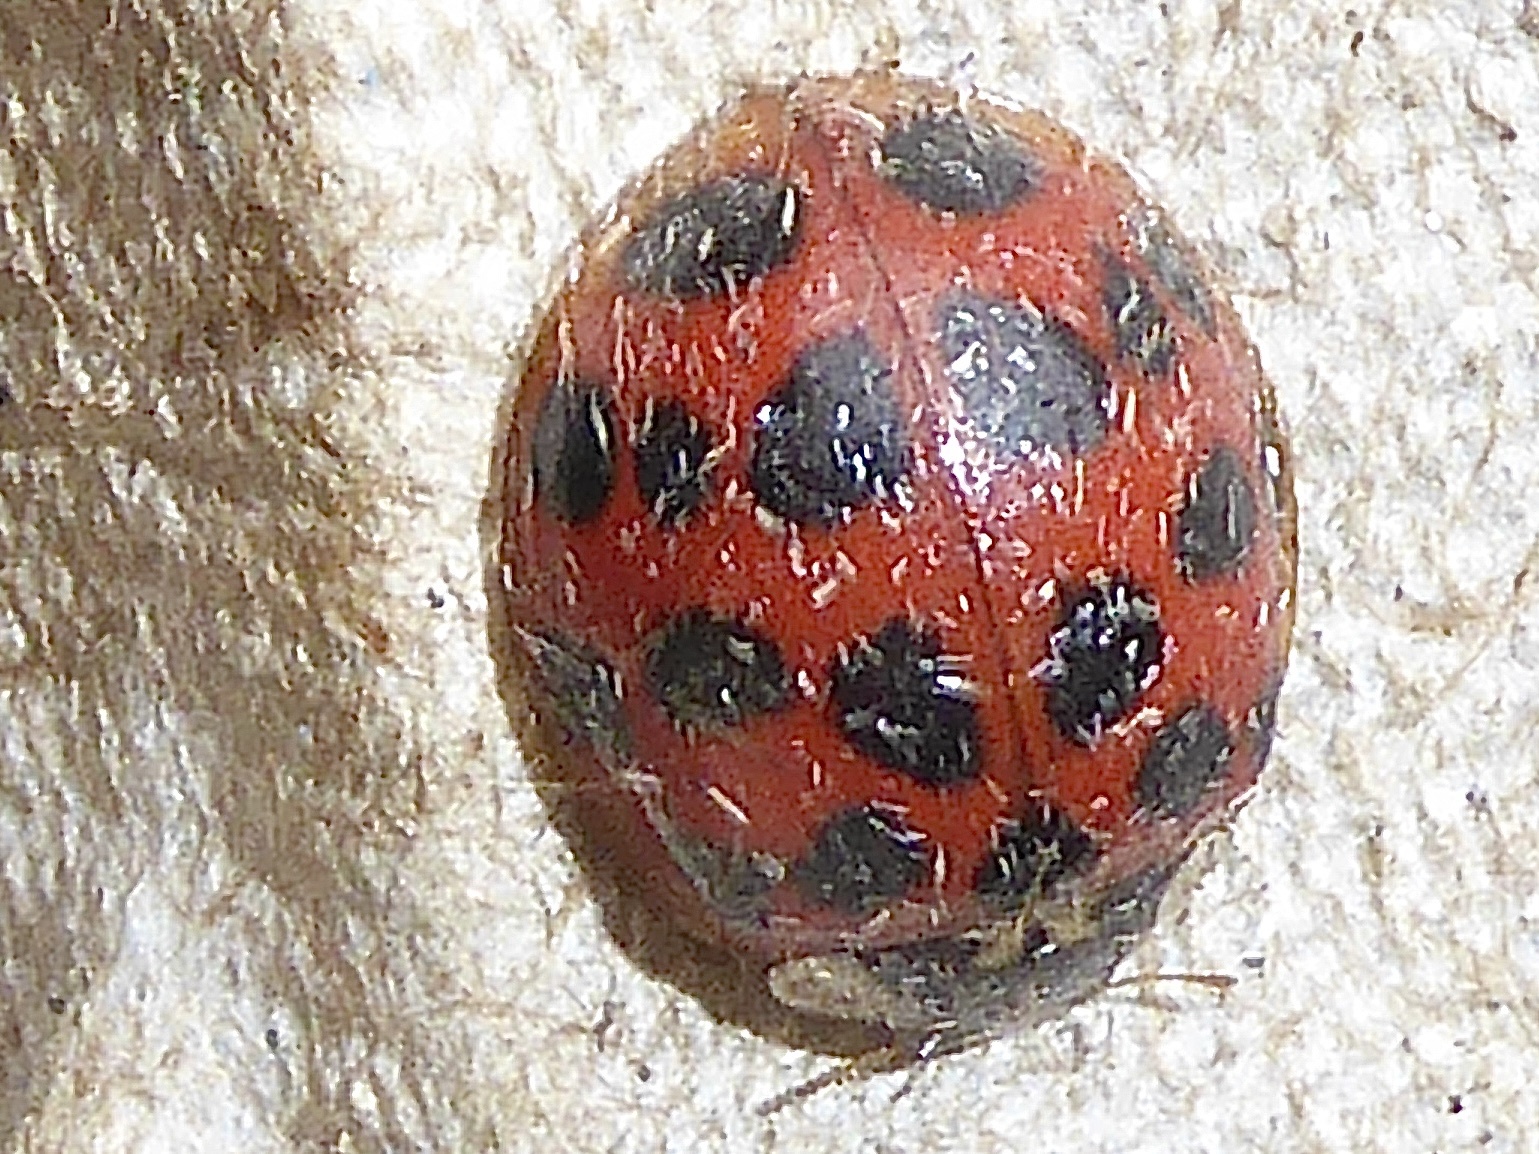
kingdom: Animalia
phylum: Arthropoda
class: Insecta
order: Coleoptera
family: Coccinellidae
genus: Harmonia
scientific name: Harmonia axyridis
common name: Harlequin ladybird
